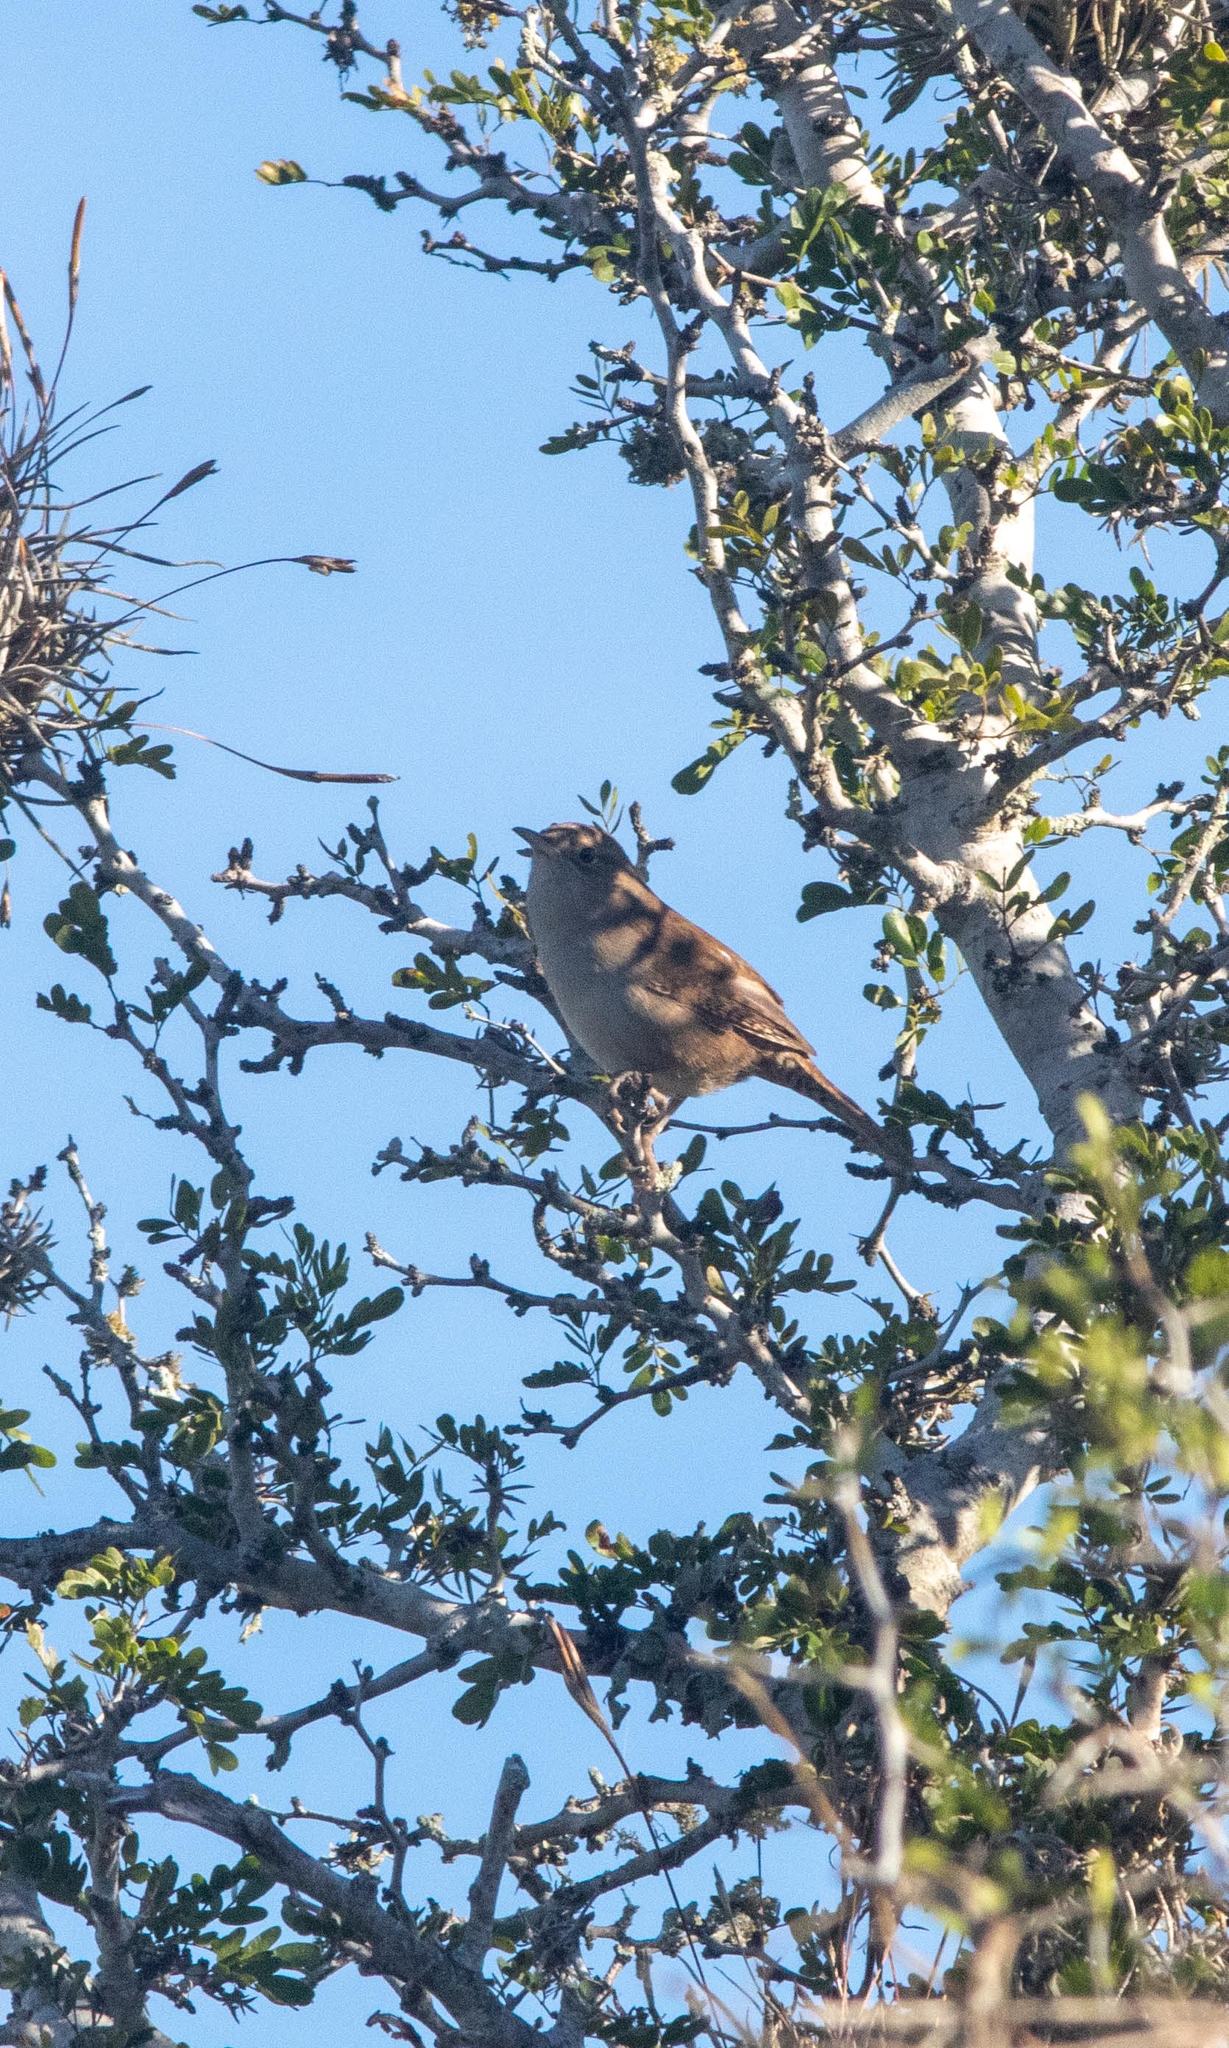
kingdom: Animalia
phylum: Chordata
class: Aves
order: Passeriformes
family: Troglodytidae
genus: Troglodytes
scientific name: Troglodytes aedon
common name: House wren
